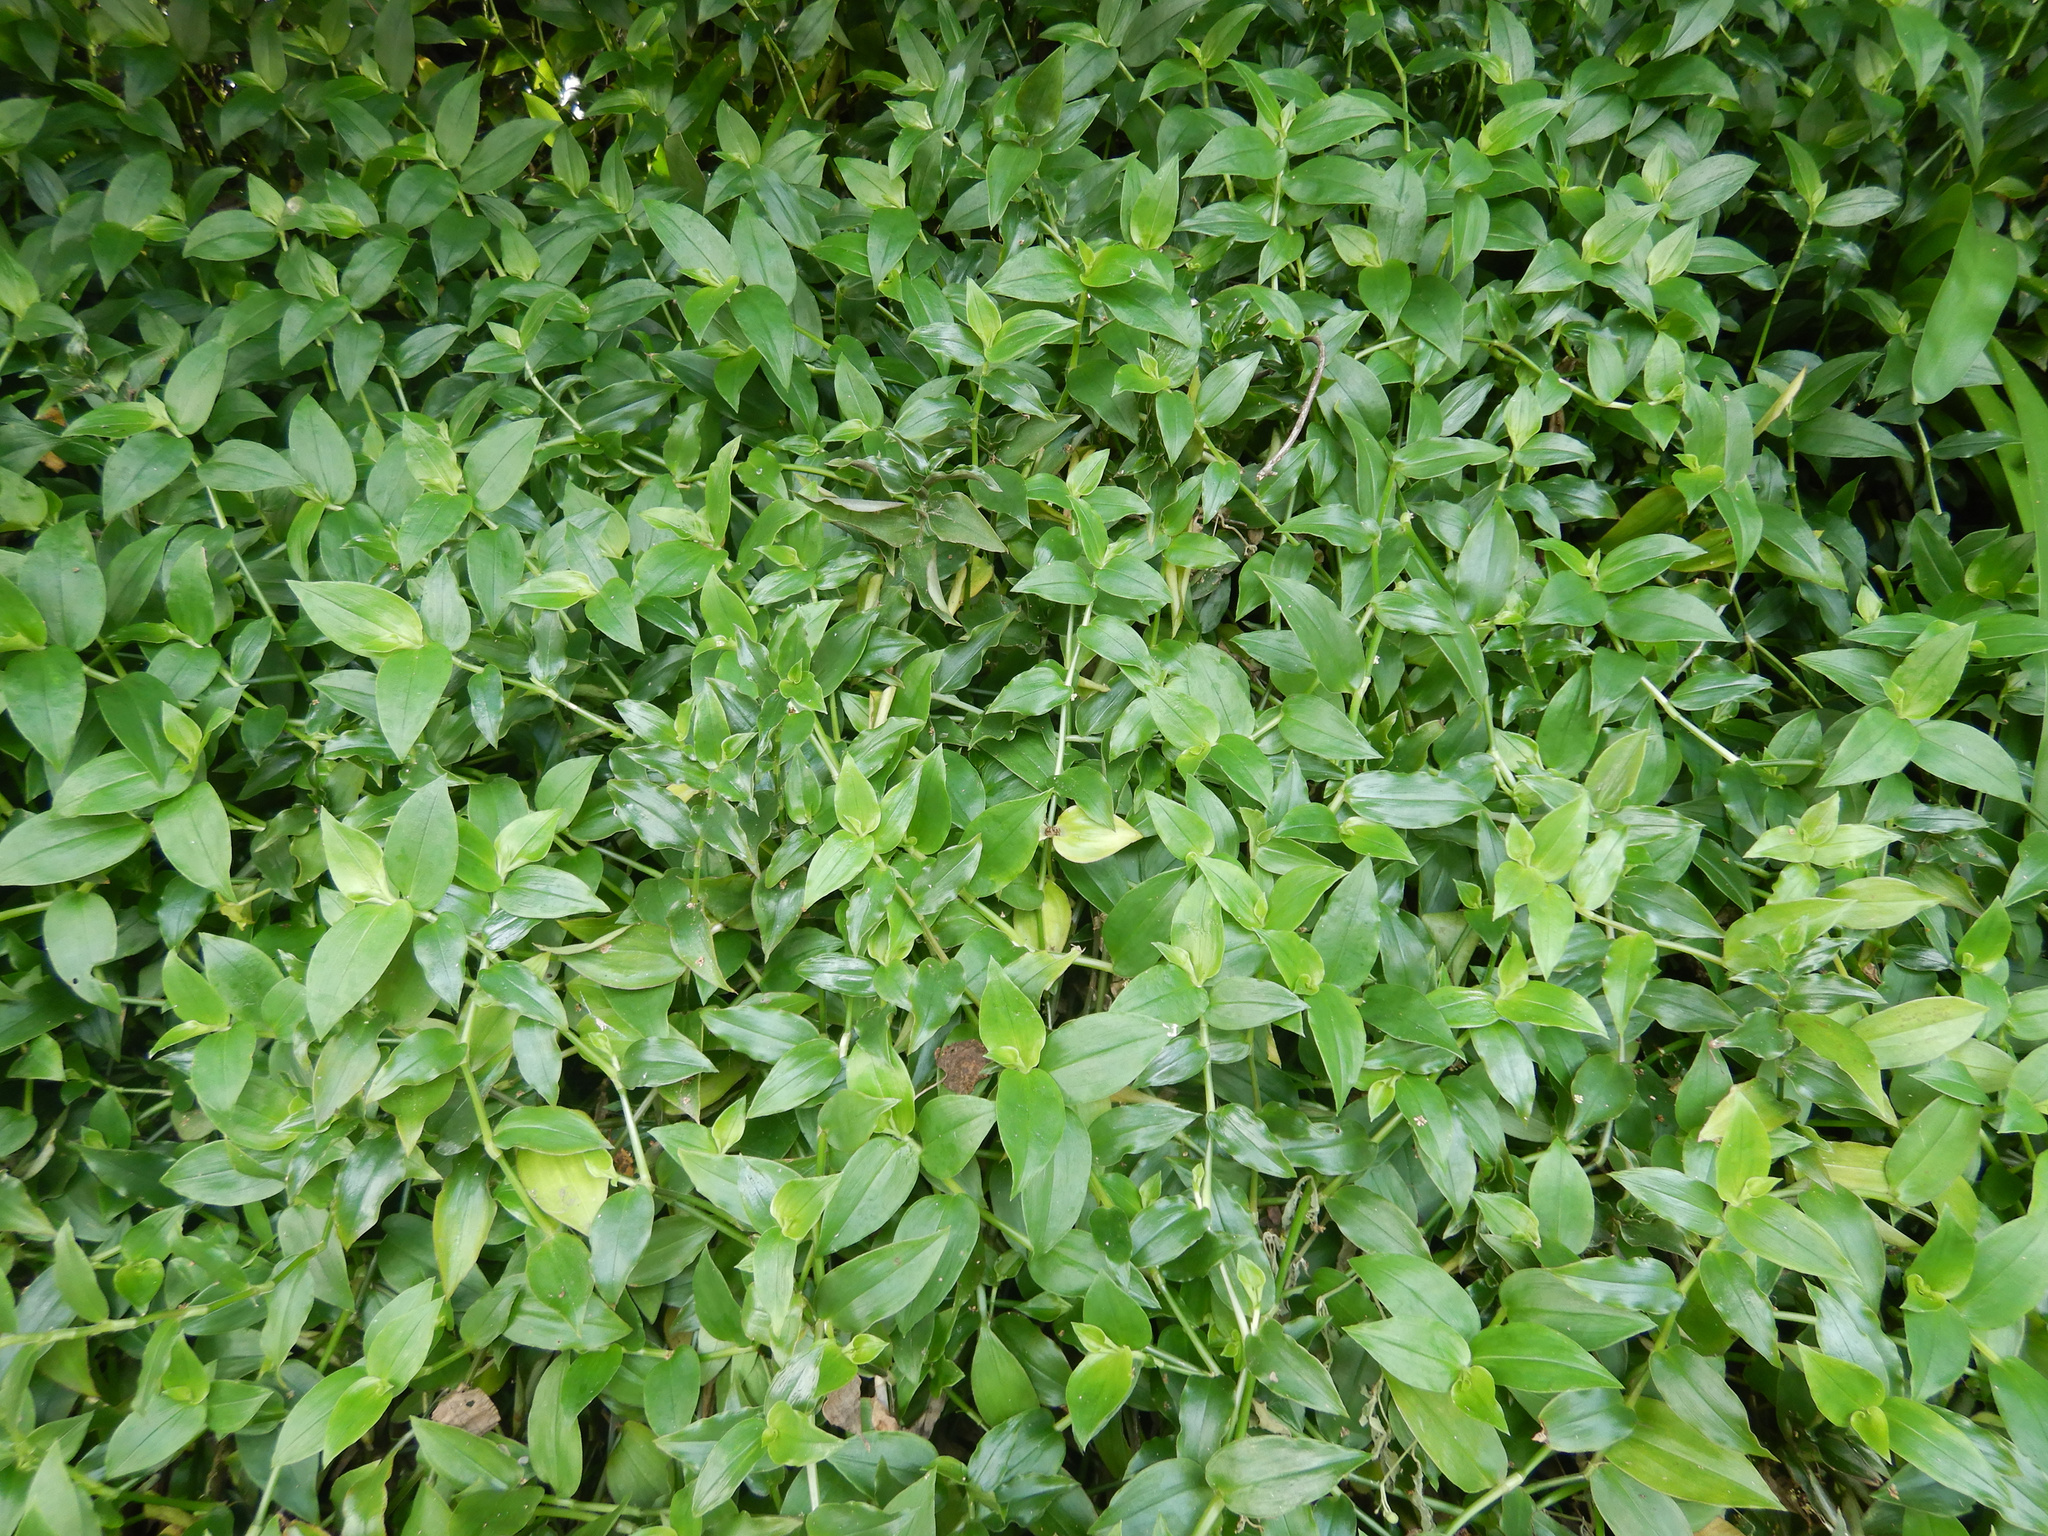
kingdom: Plantae
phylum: Tracheophyta
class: Liliopsida
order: Commelinales
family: Commelinaceae
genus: Tradescantia
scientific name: Tradescantia fluminensis
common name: Wandering-jew
